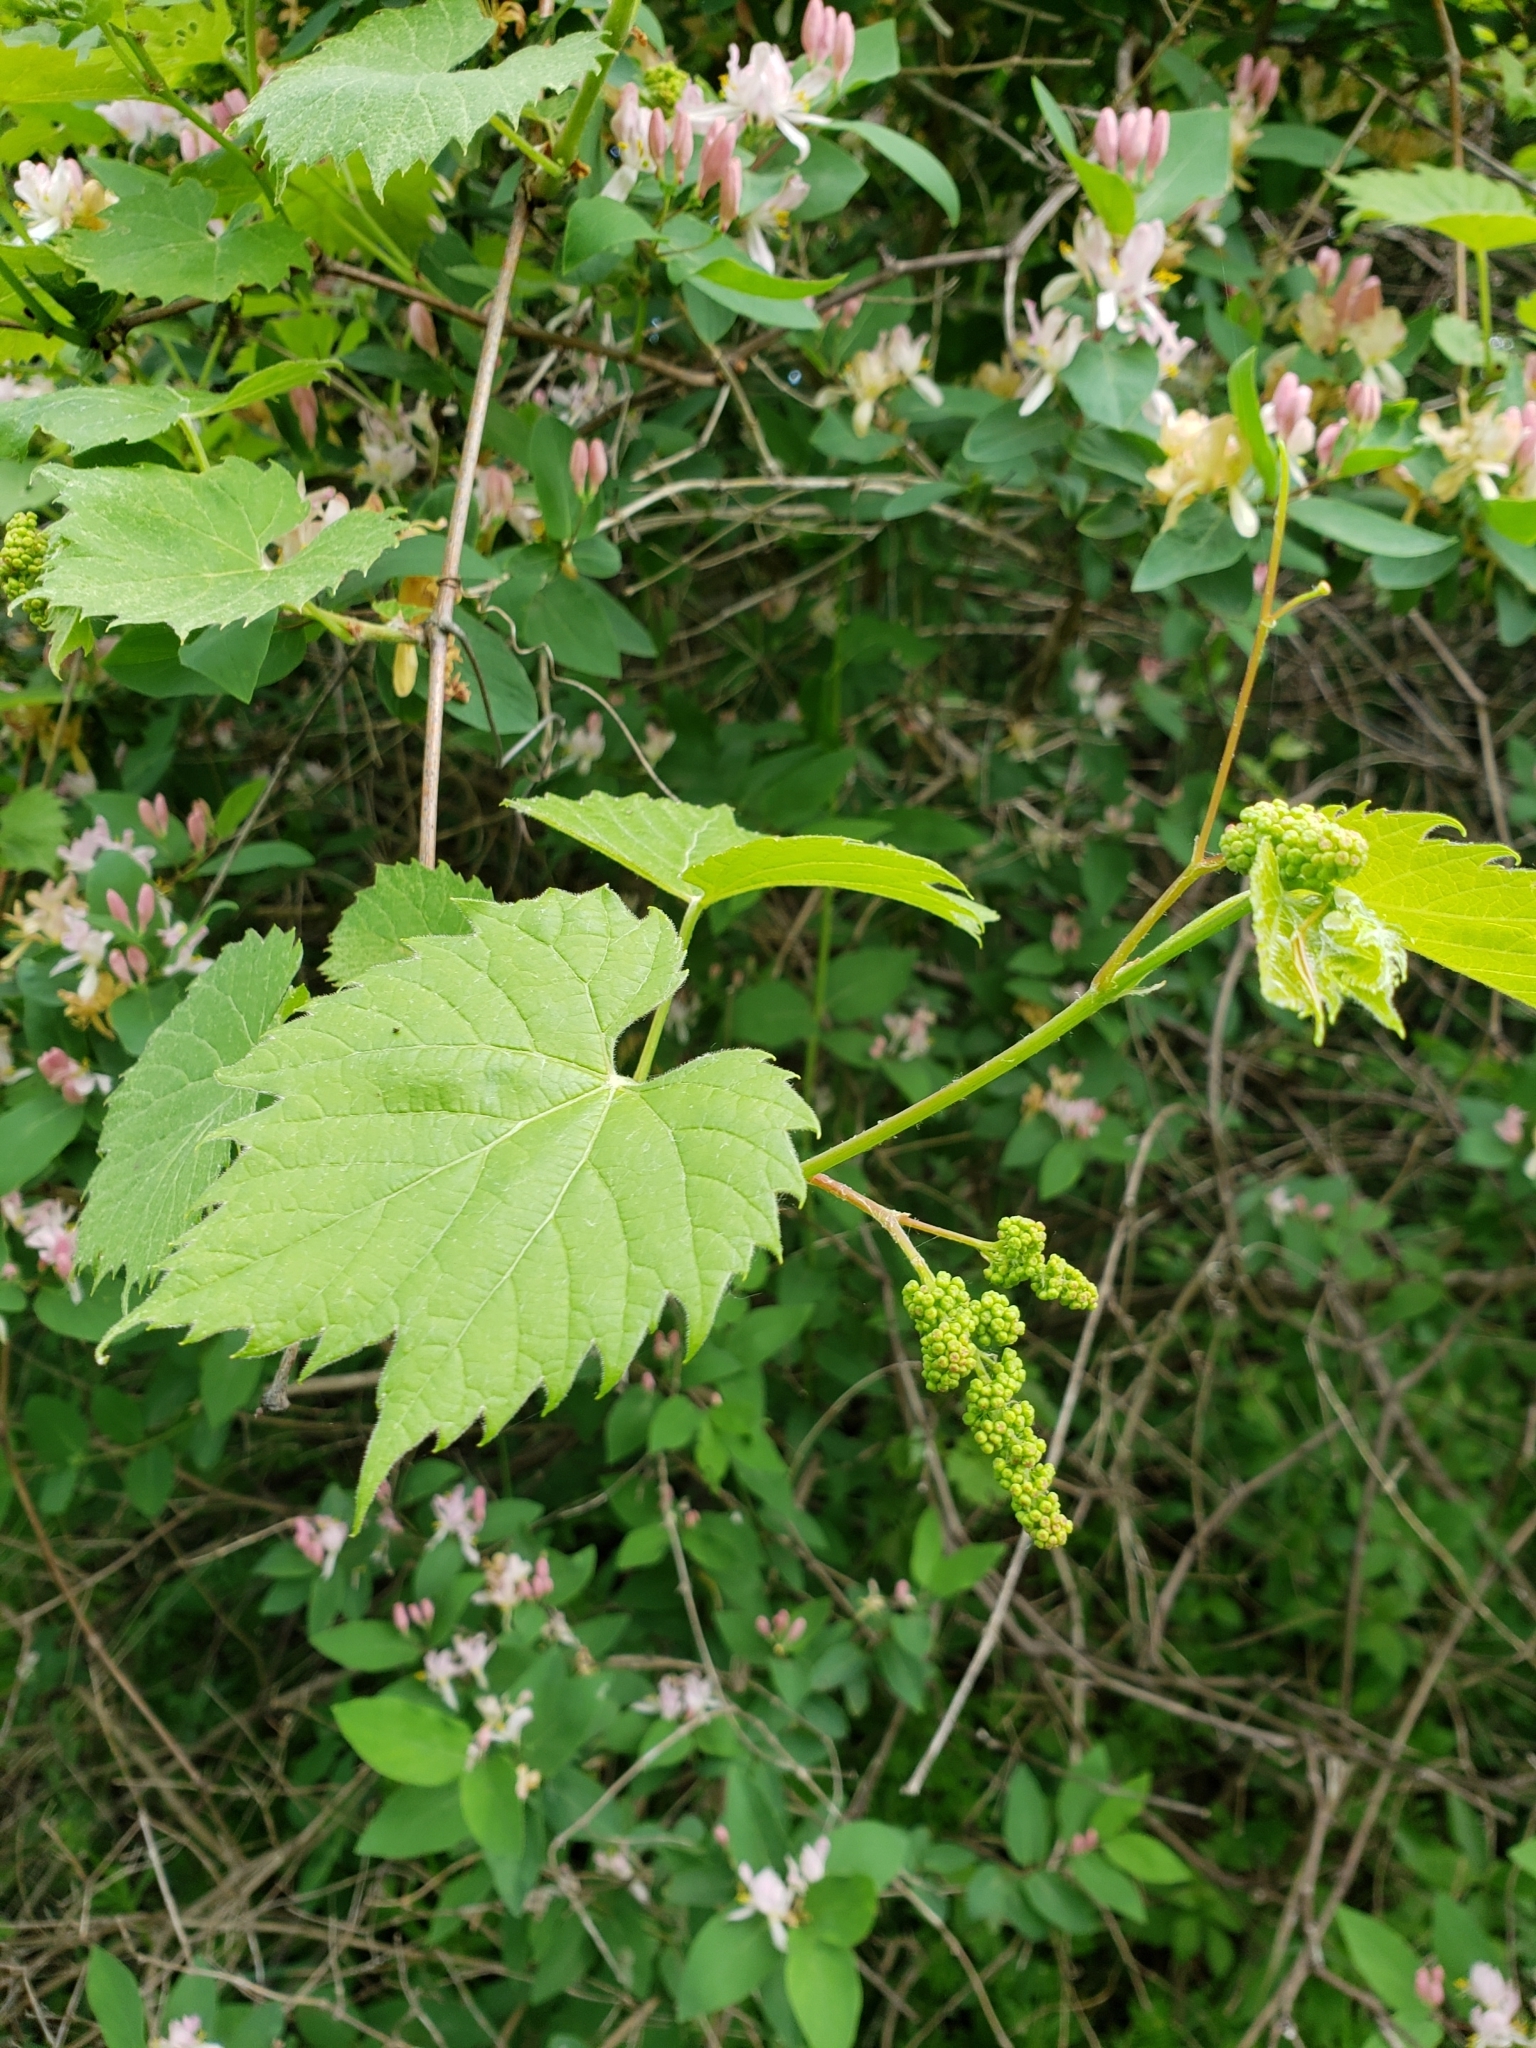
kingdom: Plantae
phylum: Tracheophyta
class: Magnoliopsida
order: Vitales
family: Vitaceae
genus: Vitis
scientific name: Vitis riparia
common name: Frost grape
